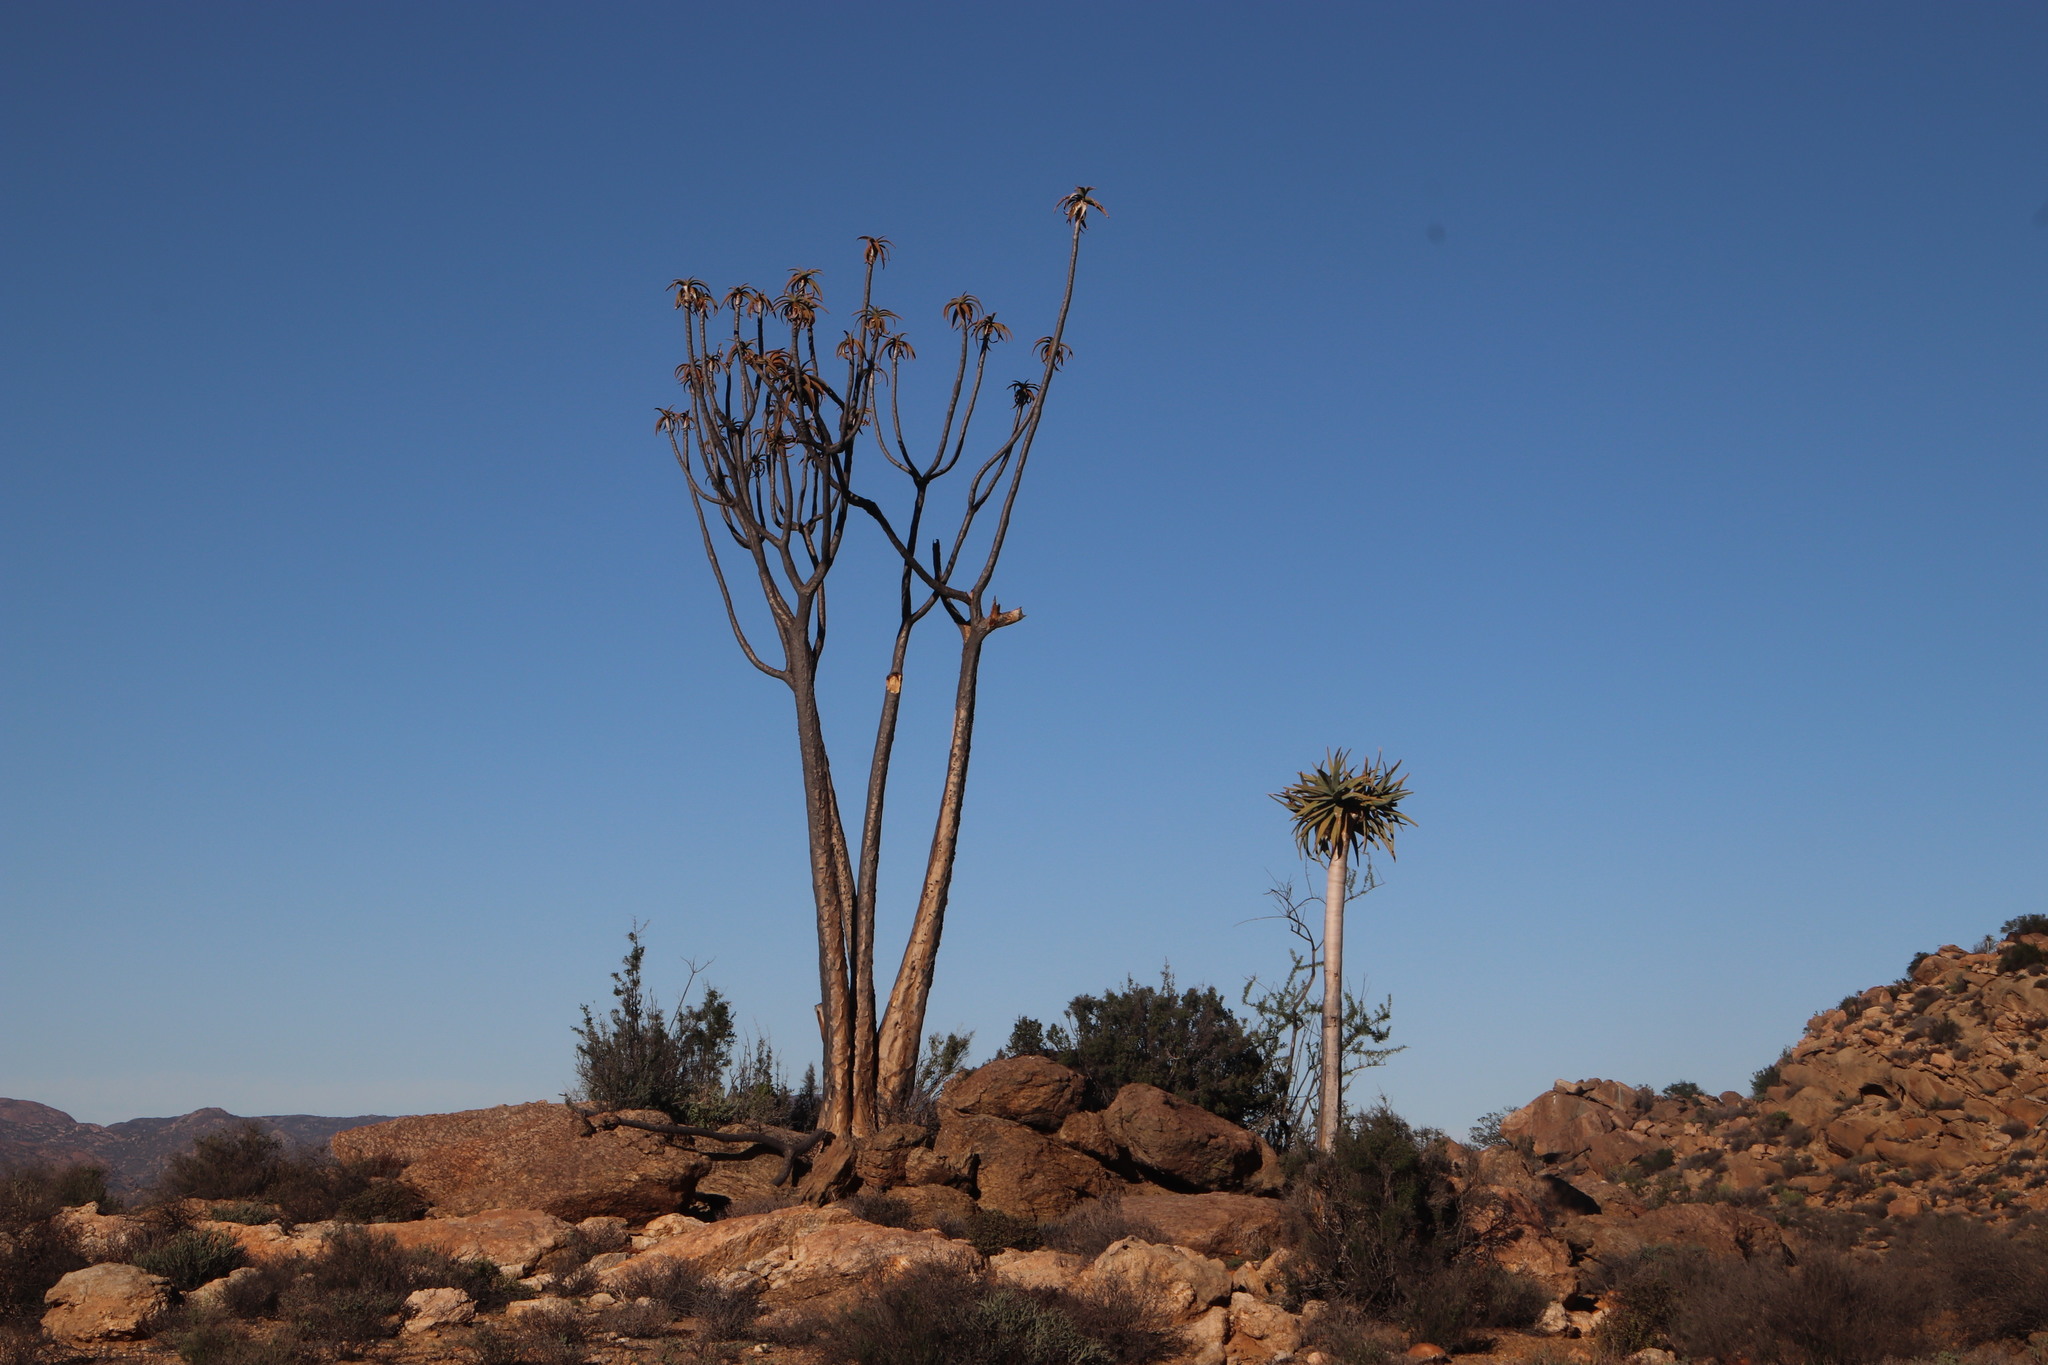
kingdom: Plantae
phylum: Tracheophyta
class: Liliopsida
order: Asparagales
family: Asphodelaceae
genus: Aloidendron
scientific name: Aloidendron dichotomum
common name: Quiver tree
